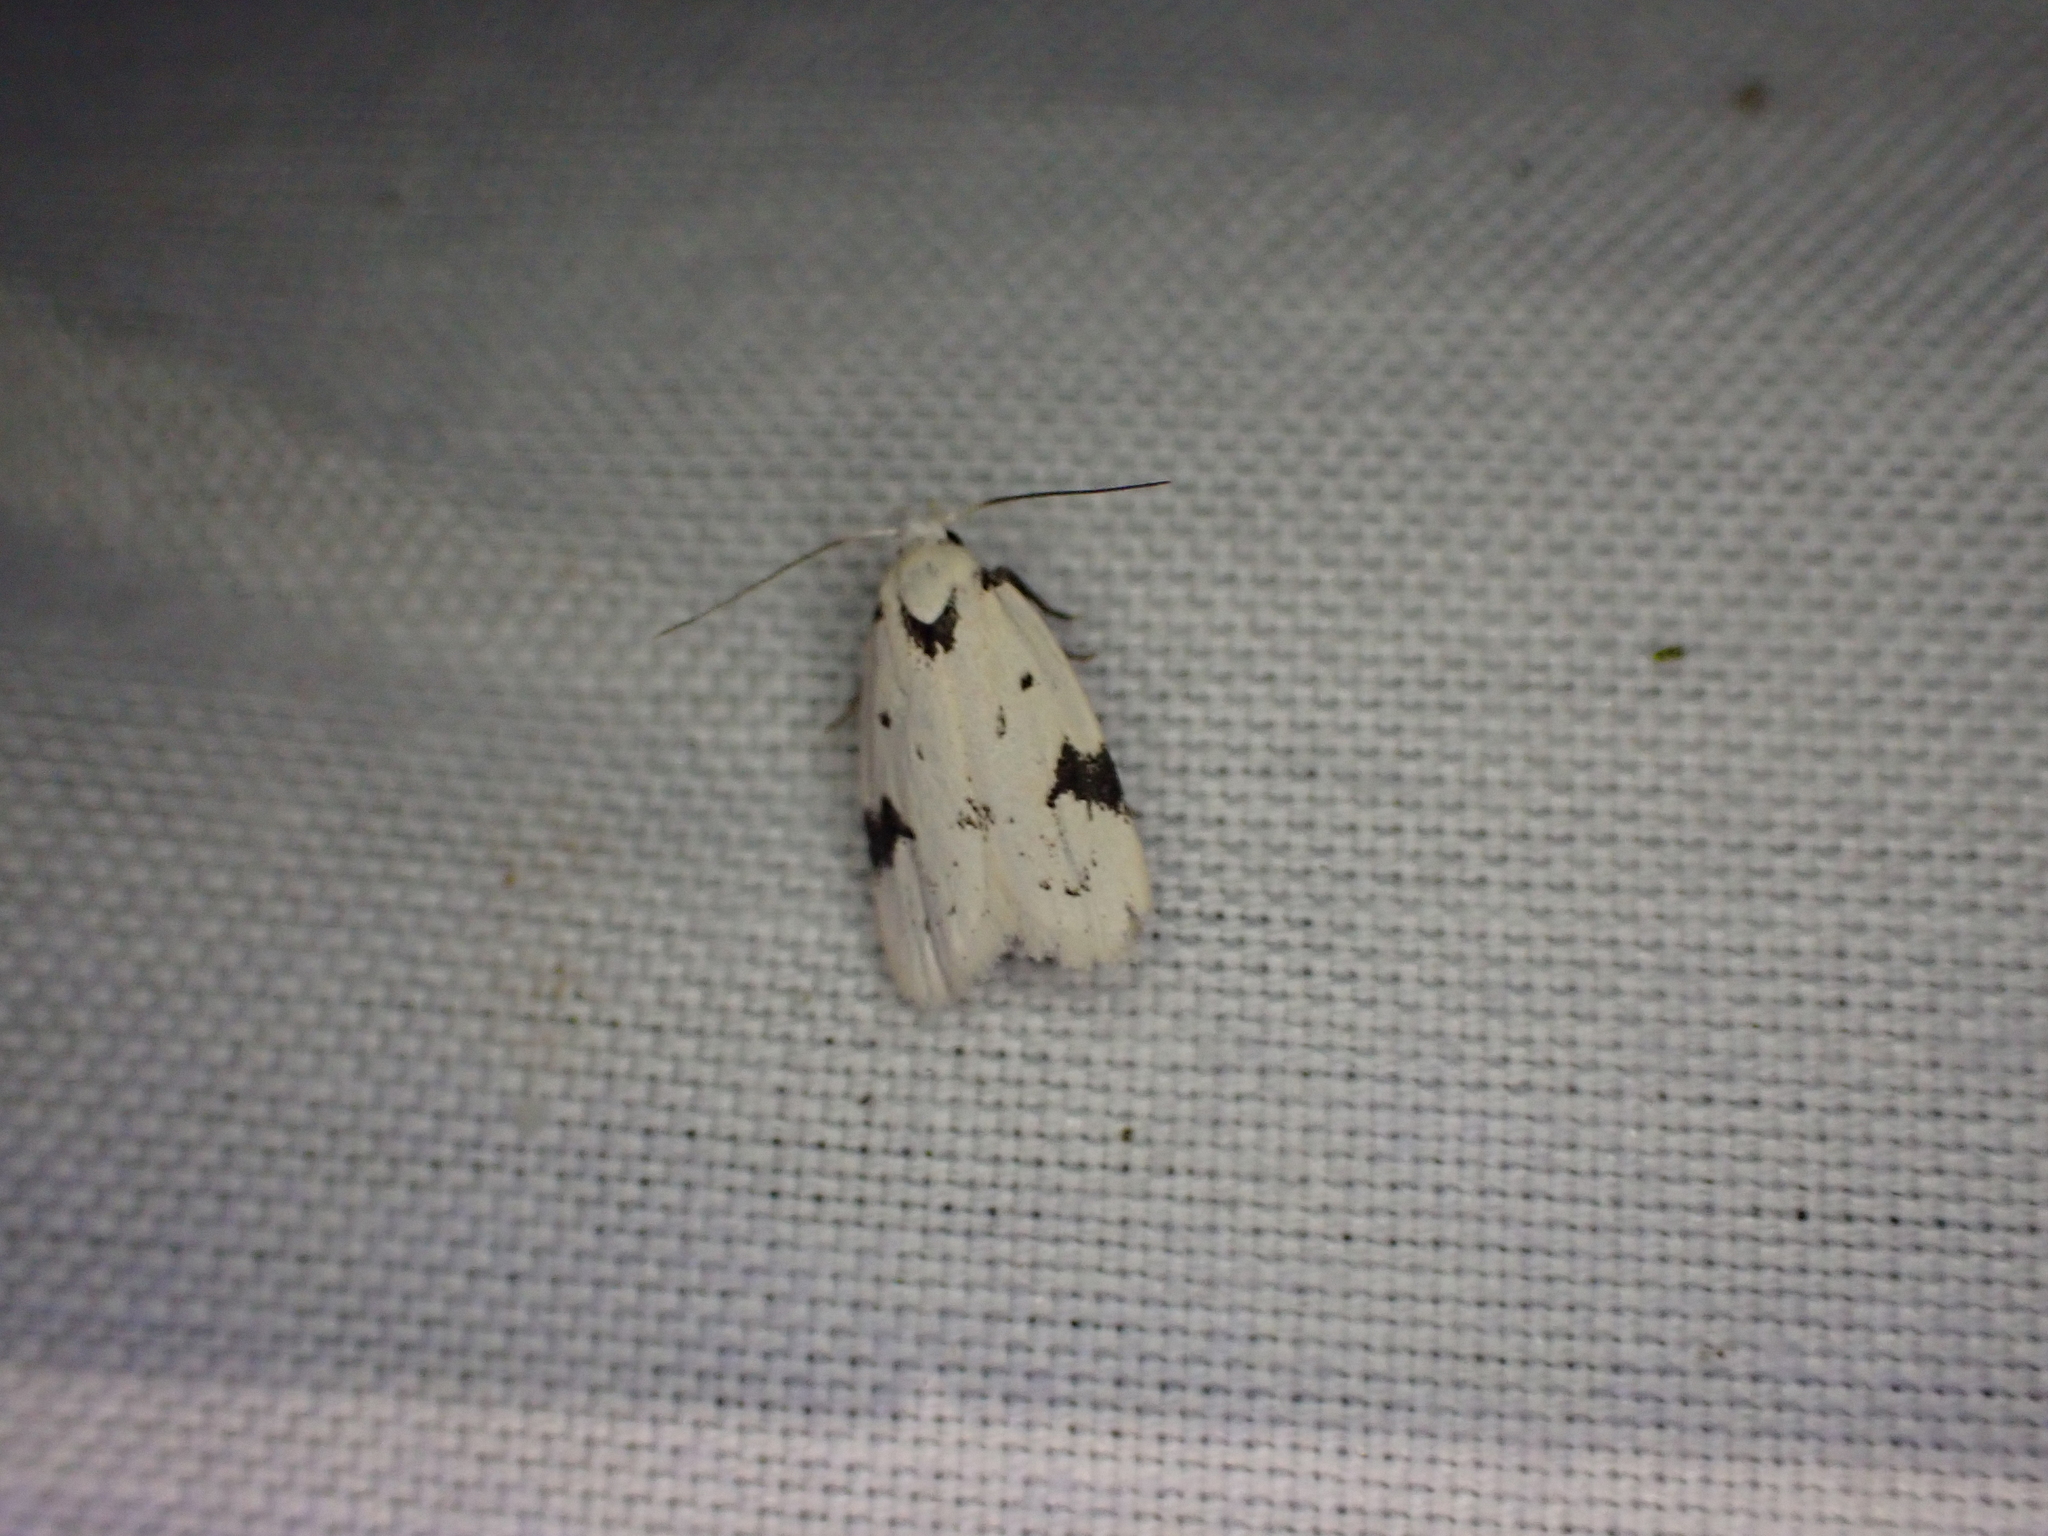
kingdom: Animalia
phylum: Arthropoda
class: Insecta
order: Lepidoptera
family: Oecophoridae
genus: Inga
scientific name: Inga sparsiciliella
